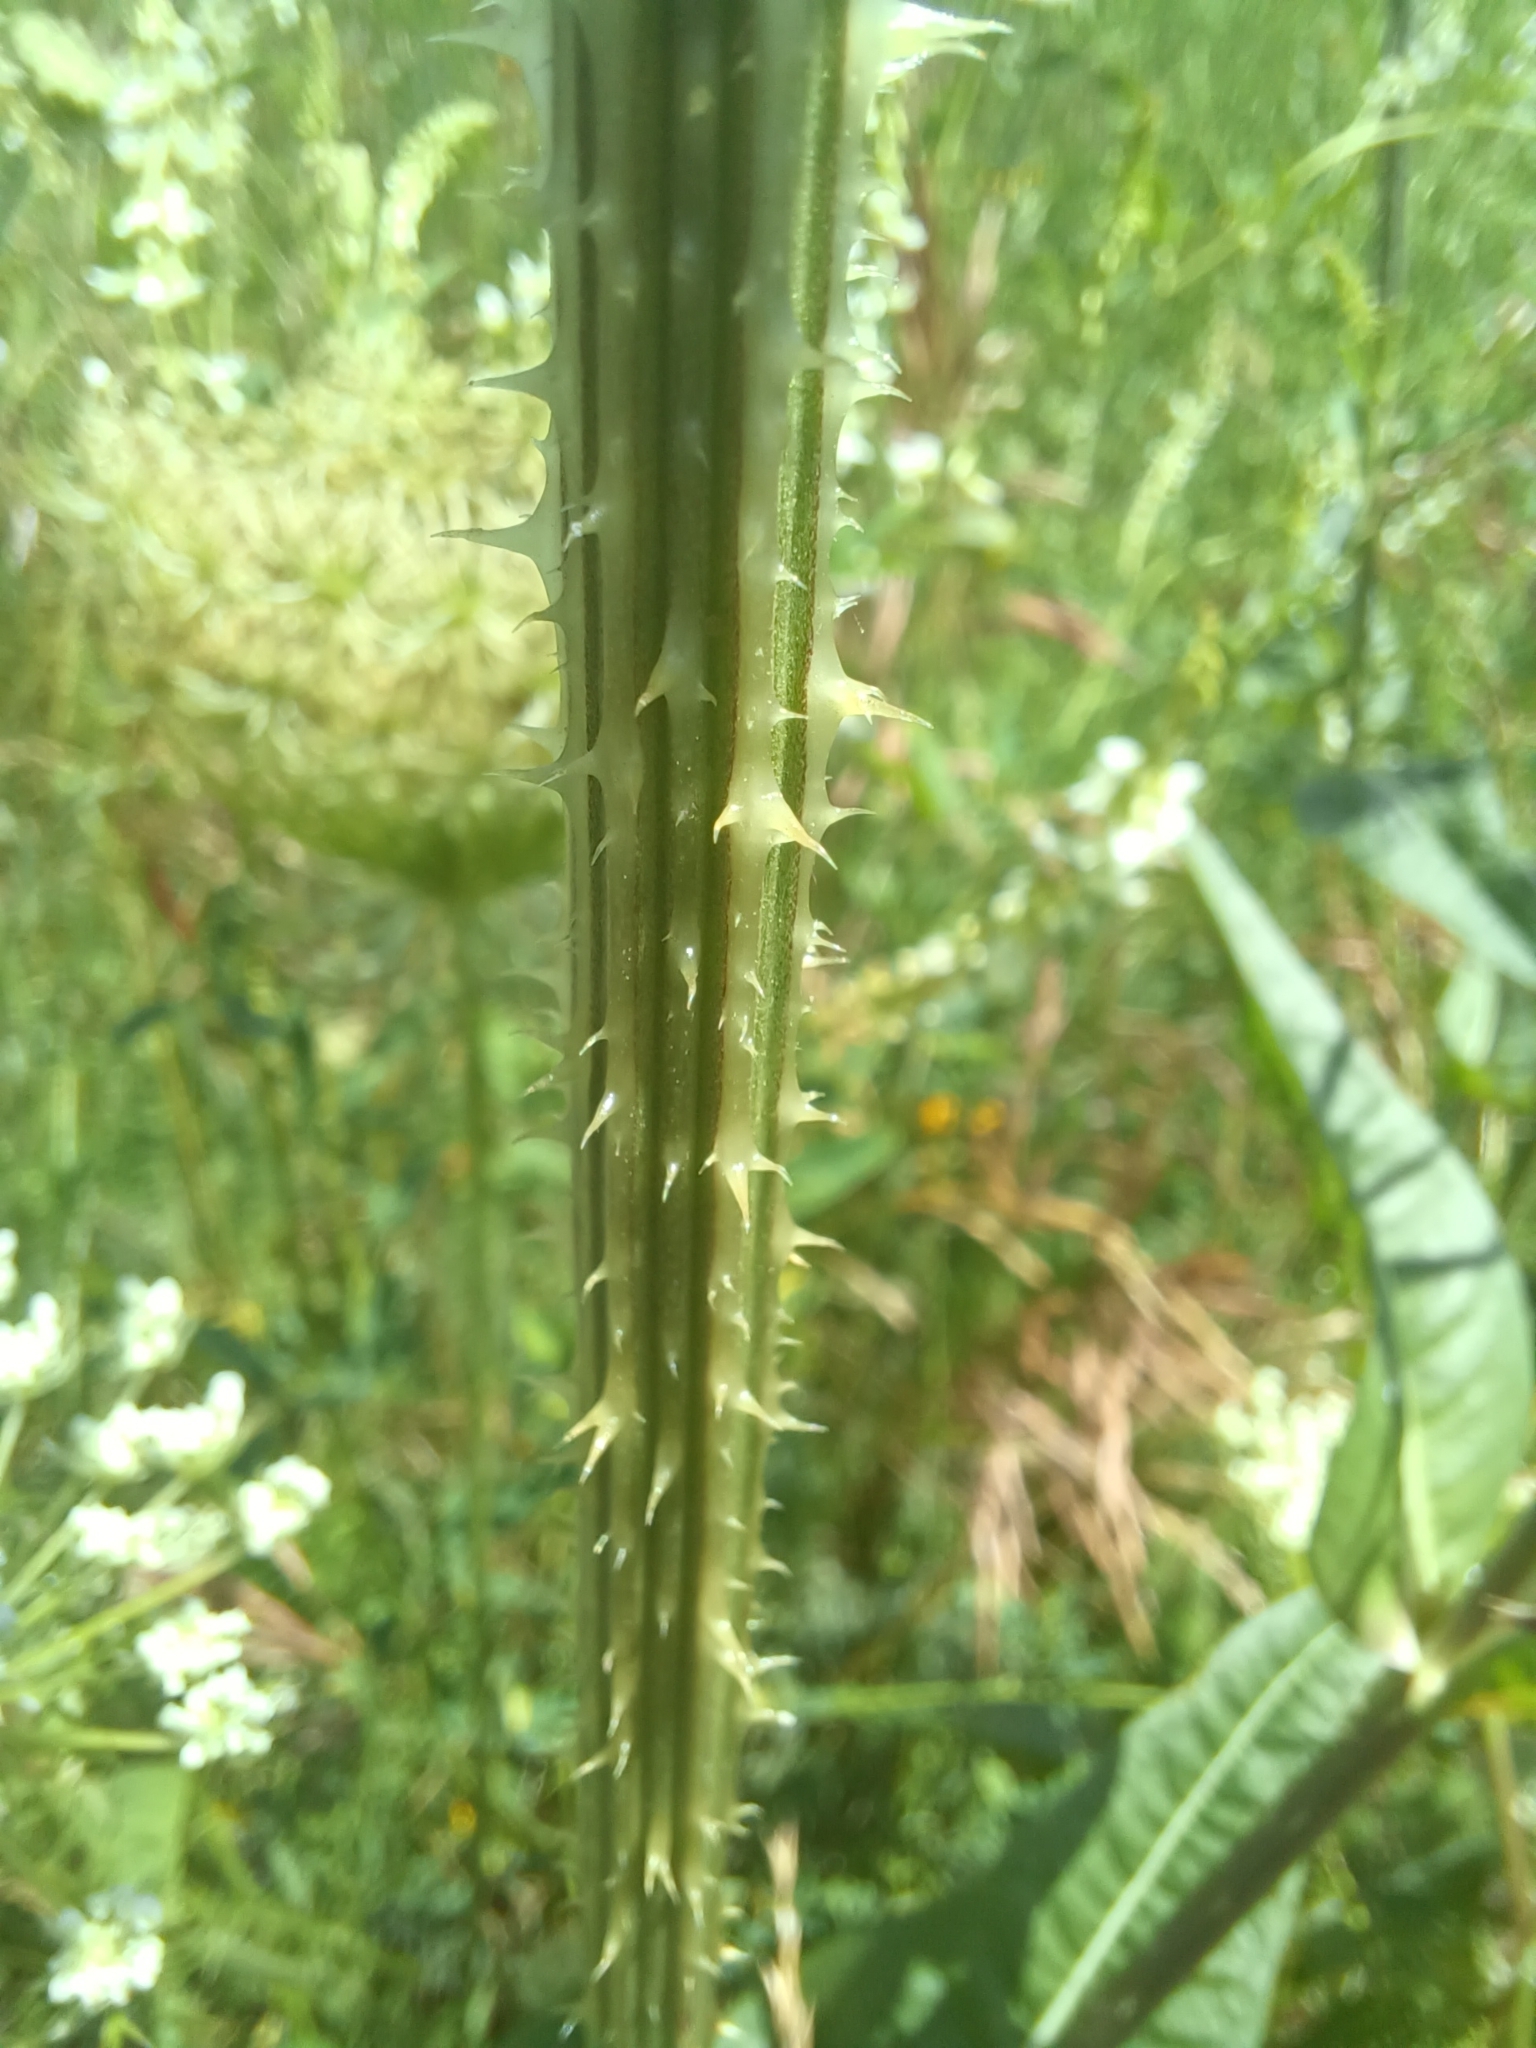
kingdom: Plantae
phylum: Tracheophyta
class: Magnoliopsida
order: Dipsacales
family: Caprifoliaceae
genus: Dipsacus
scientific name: Dipsacus fullonum
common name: Teasel
